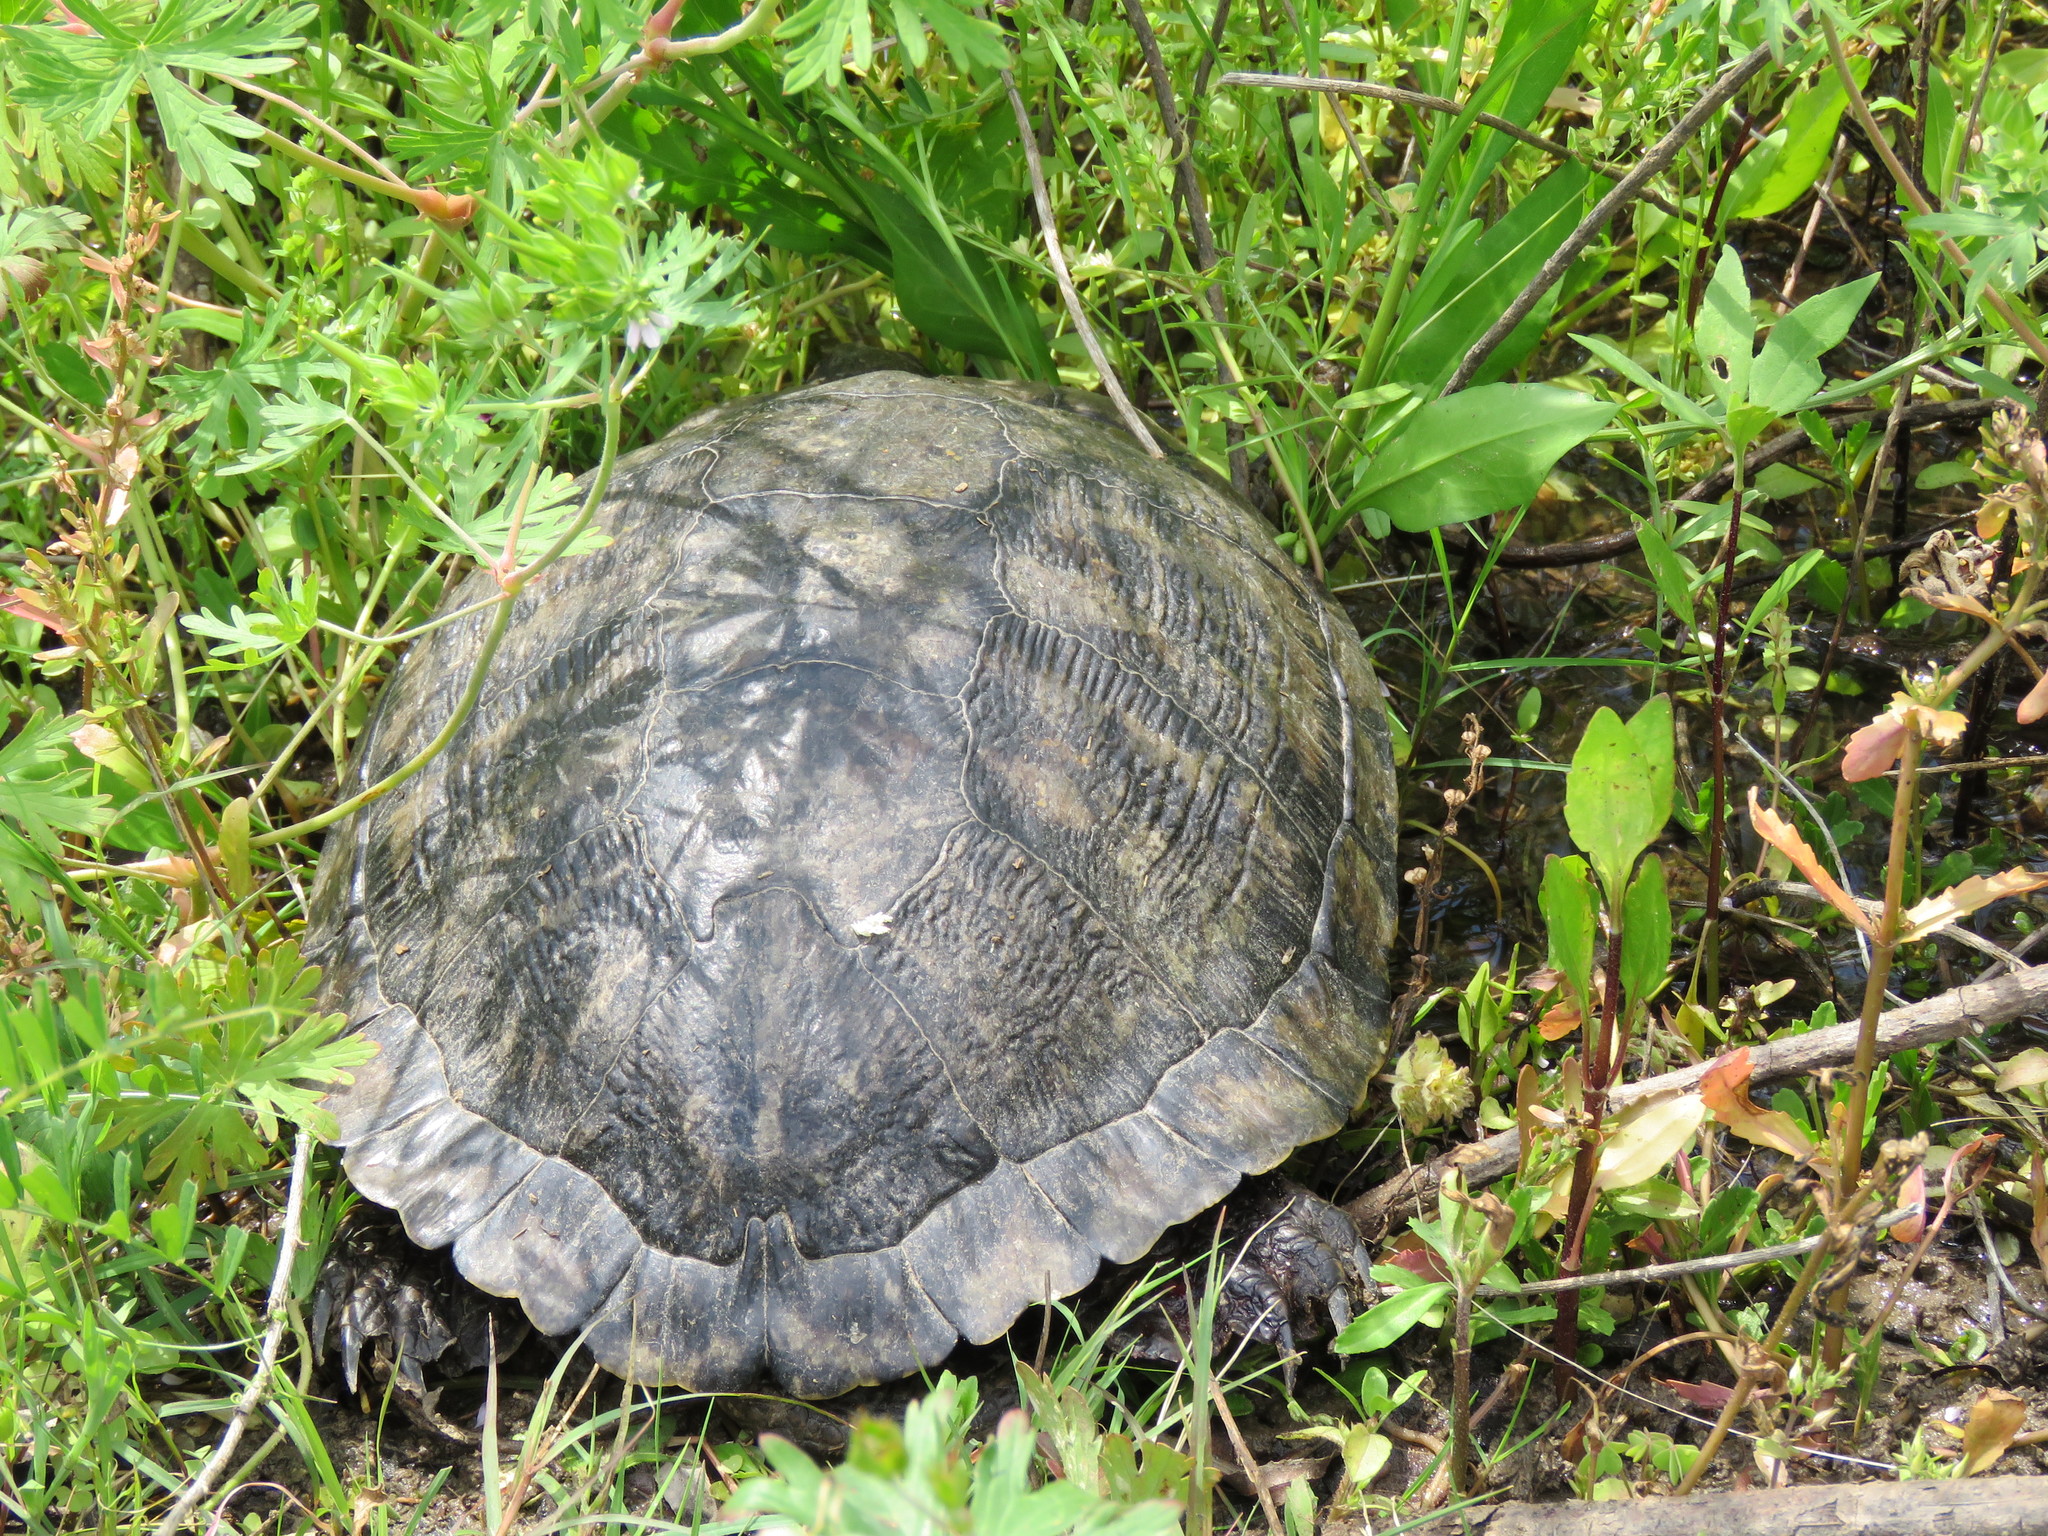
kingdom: Animalia
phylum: Chordata
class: Testudines
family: Emydidae
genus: Trachemys
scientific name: Trachemys scripta
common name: Slider
